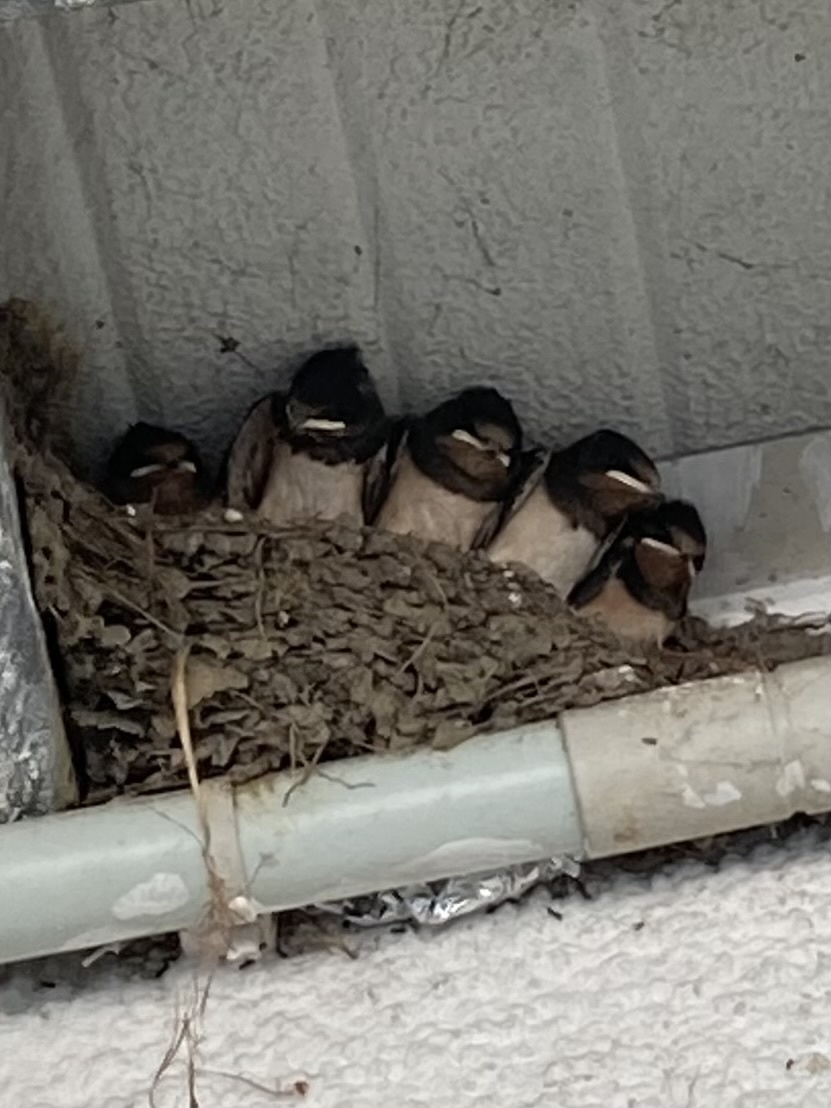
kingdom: Animalia
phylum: Chordata
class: Aves
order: Passeriformes
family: Hirundinidae
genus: Hirundo
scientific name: Hirundo rustica
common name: Barn swallow
